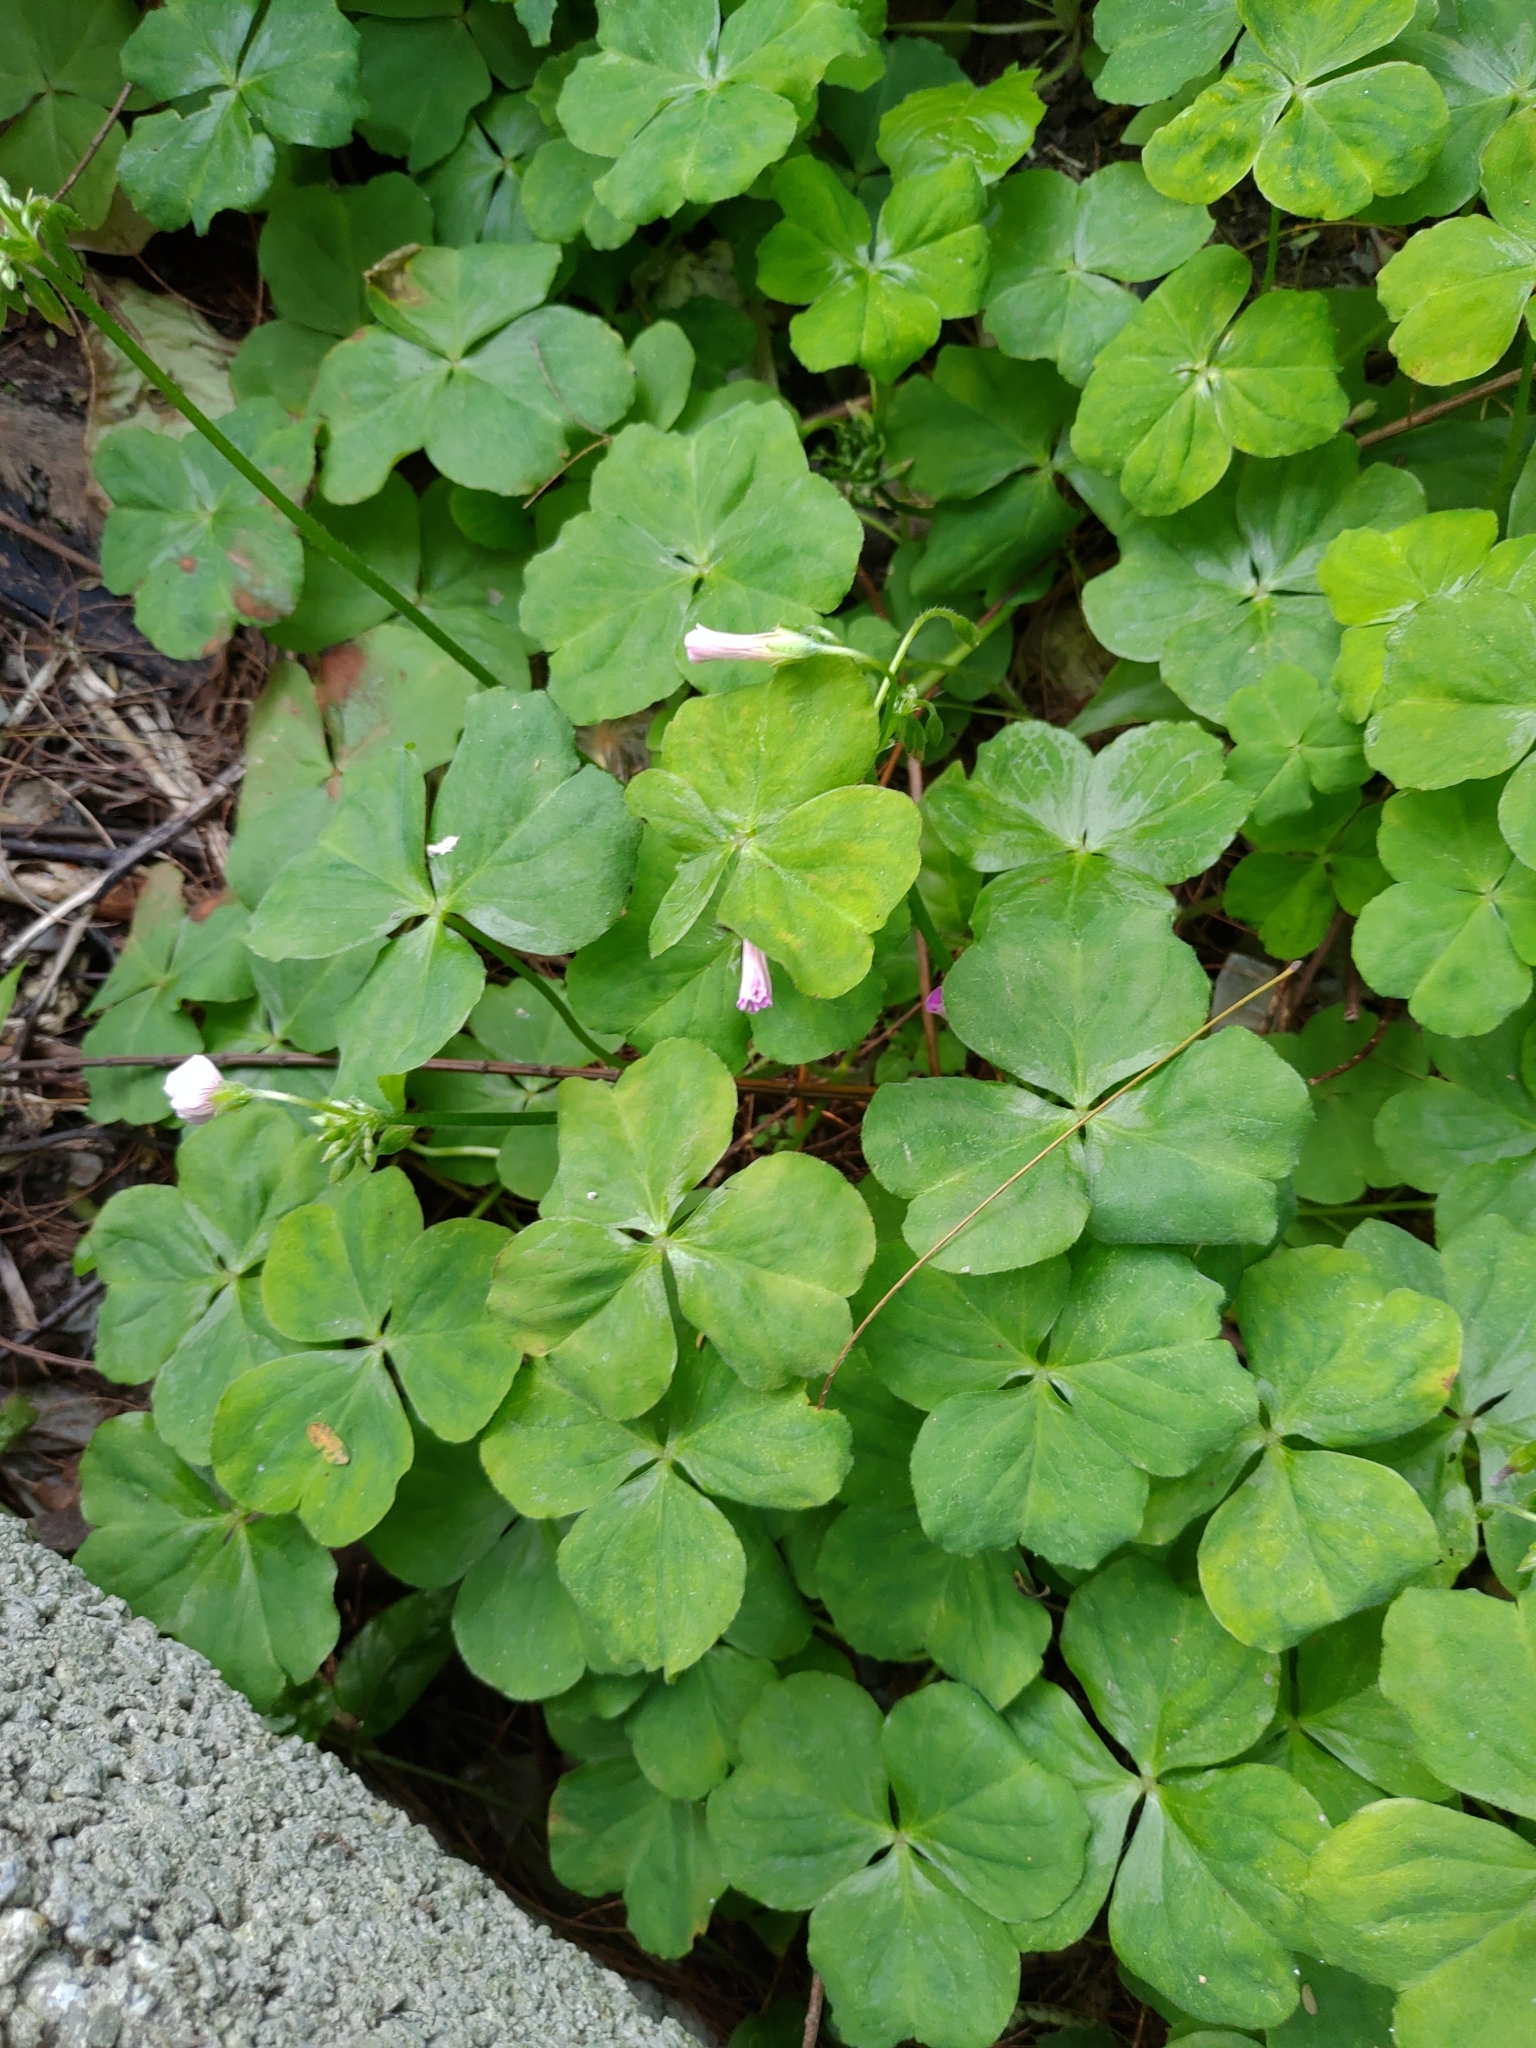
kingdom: Plantae
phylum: Tracheophyta
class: Magnoliopsida
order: Oxalidales
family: Oxalidaceae
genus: Oxalis
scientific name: Oxalis debilis
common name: Large-flowered pink-sorrel
